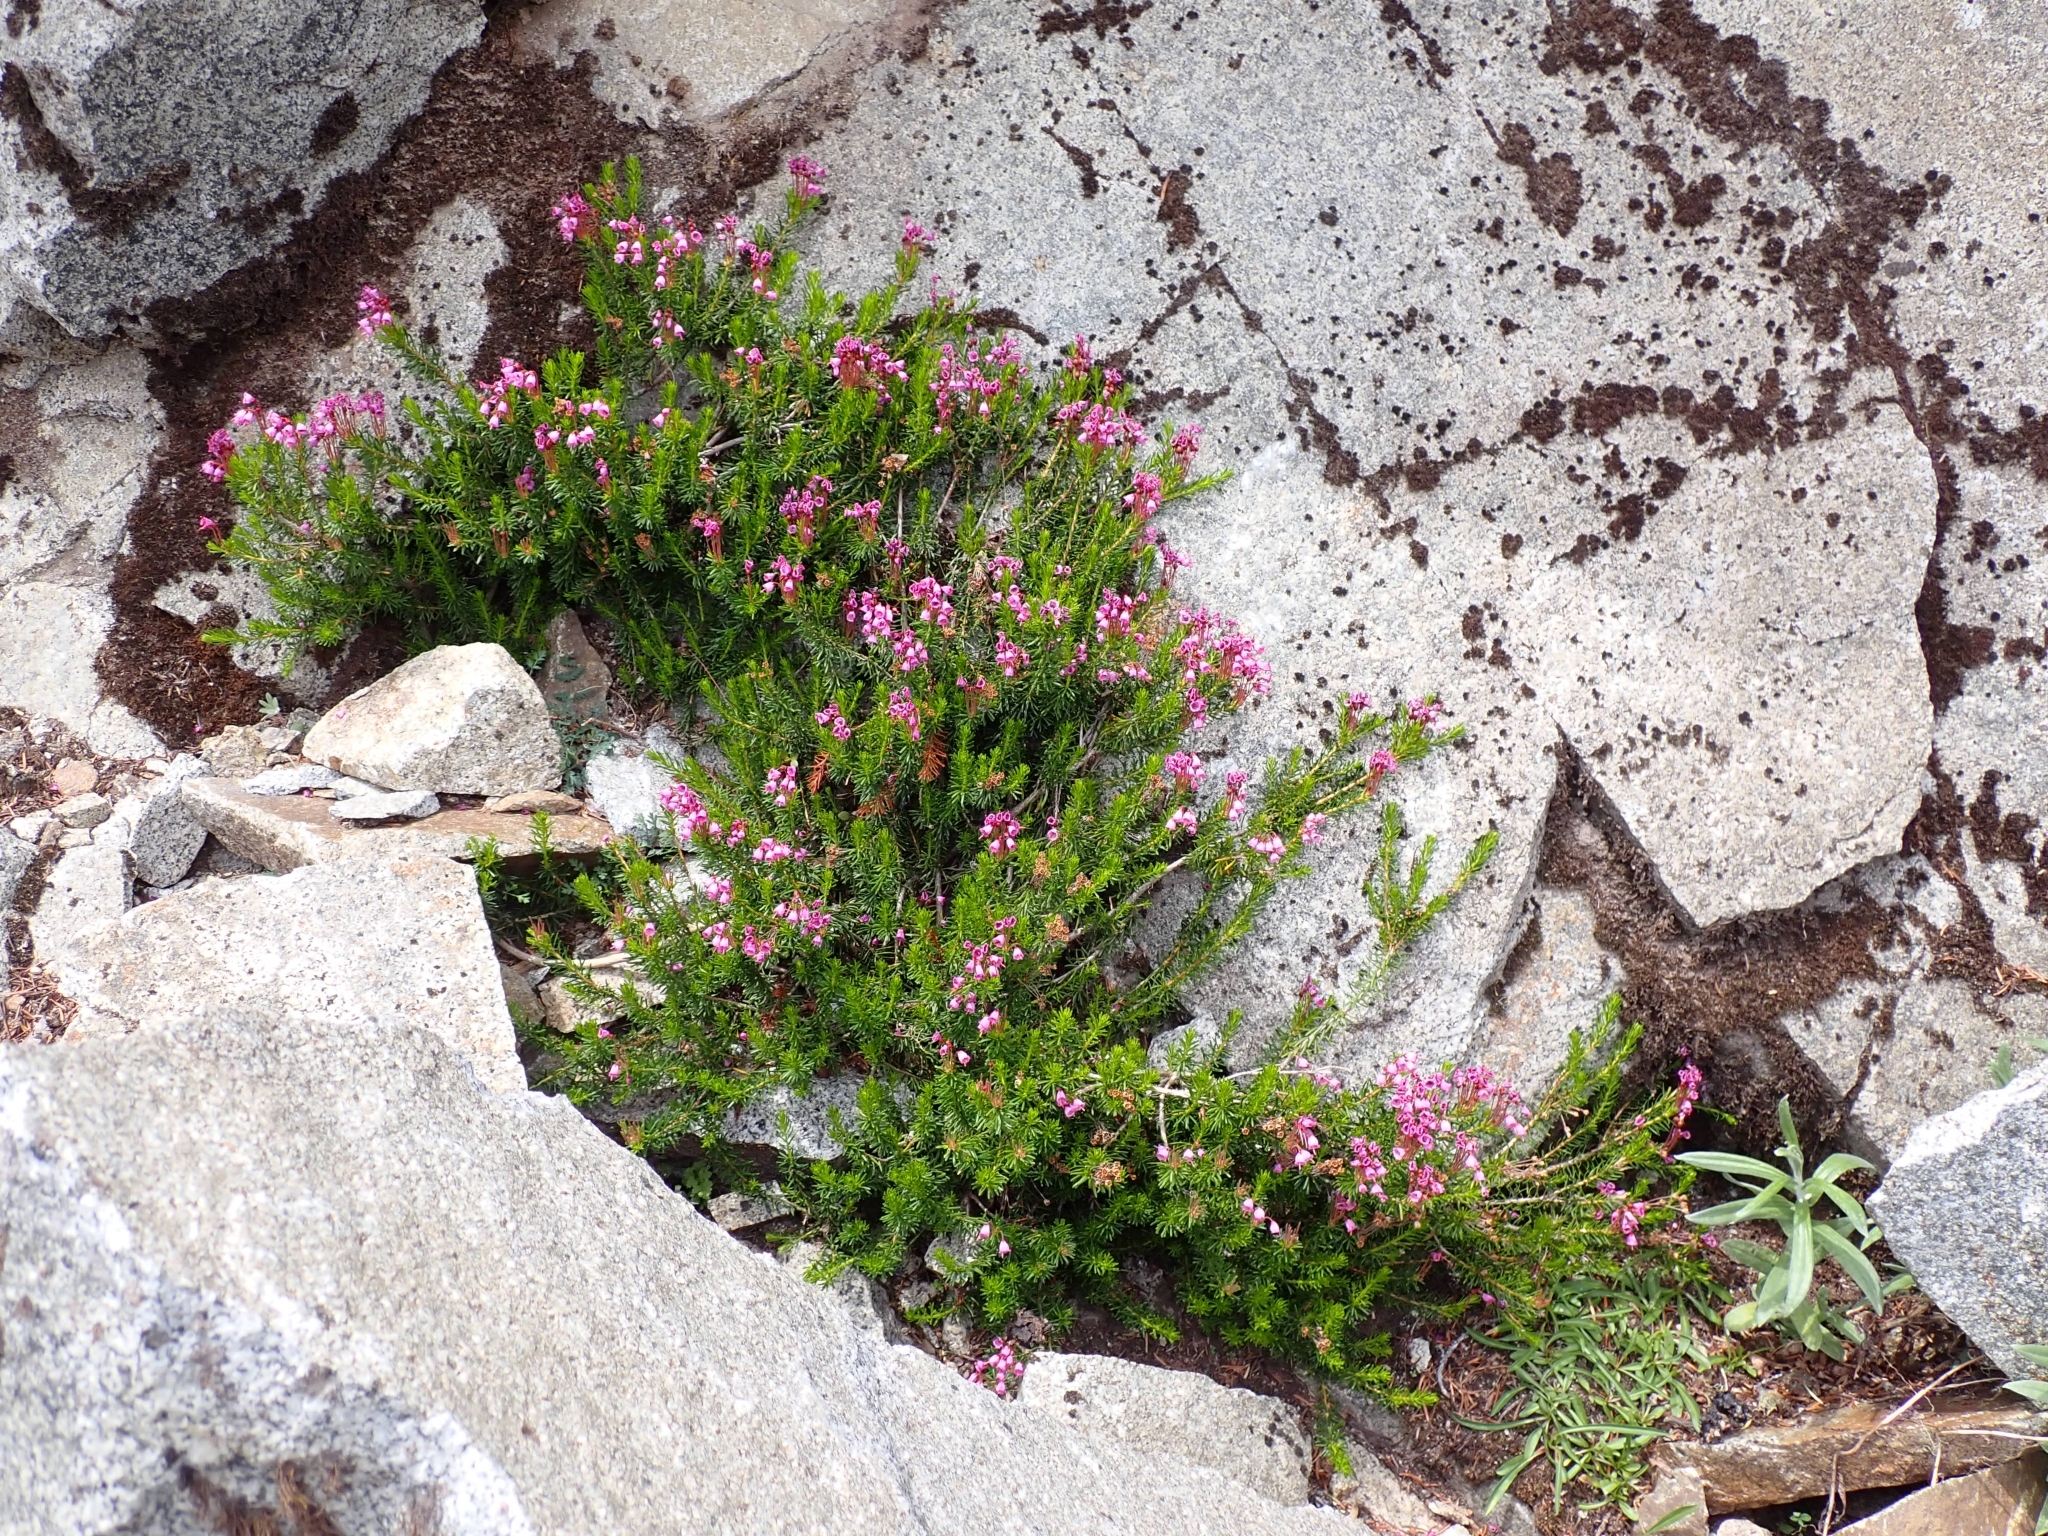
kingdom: Plantae
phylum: Tracheophyta
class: Magnoliopsida
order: Ericales
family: Ericaceae
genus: Phyllodoce
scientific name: Phyllodoce empetriformis
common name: Pink mountain heather
